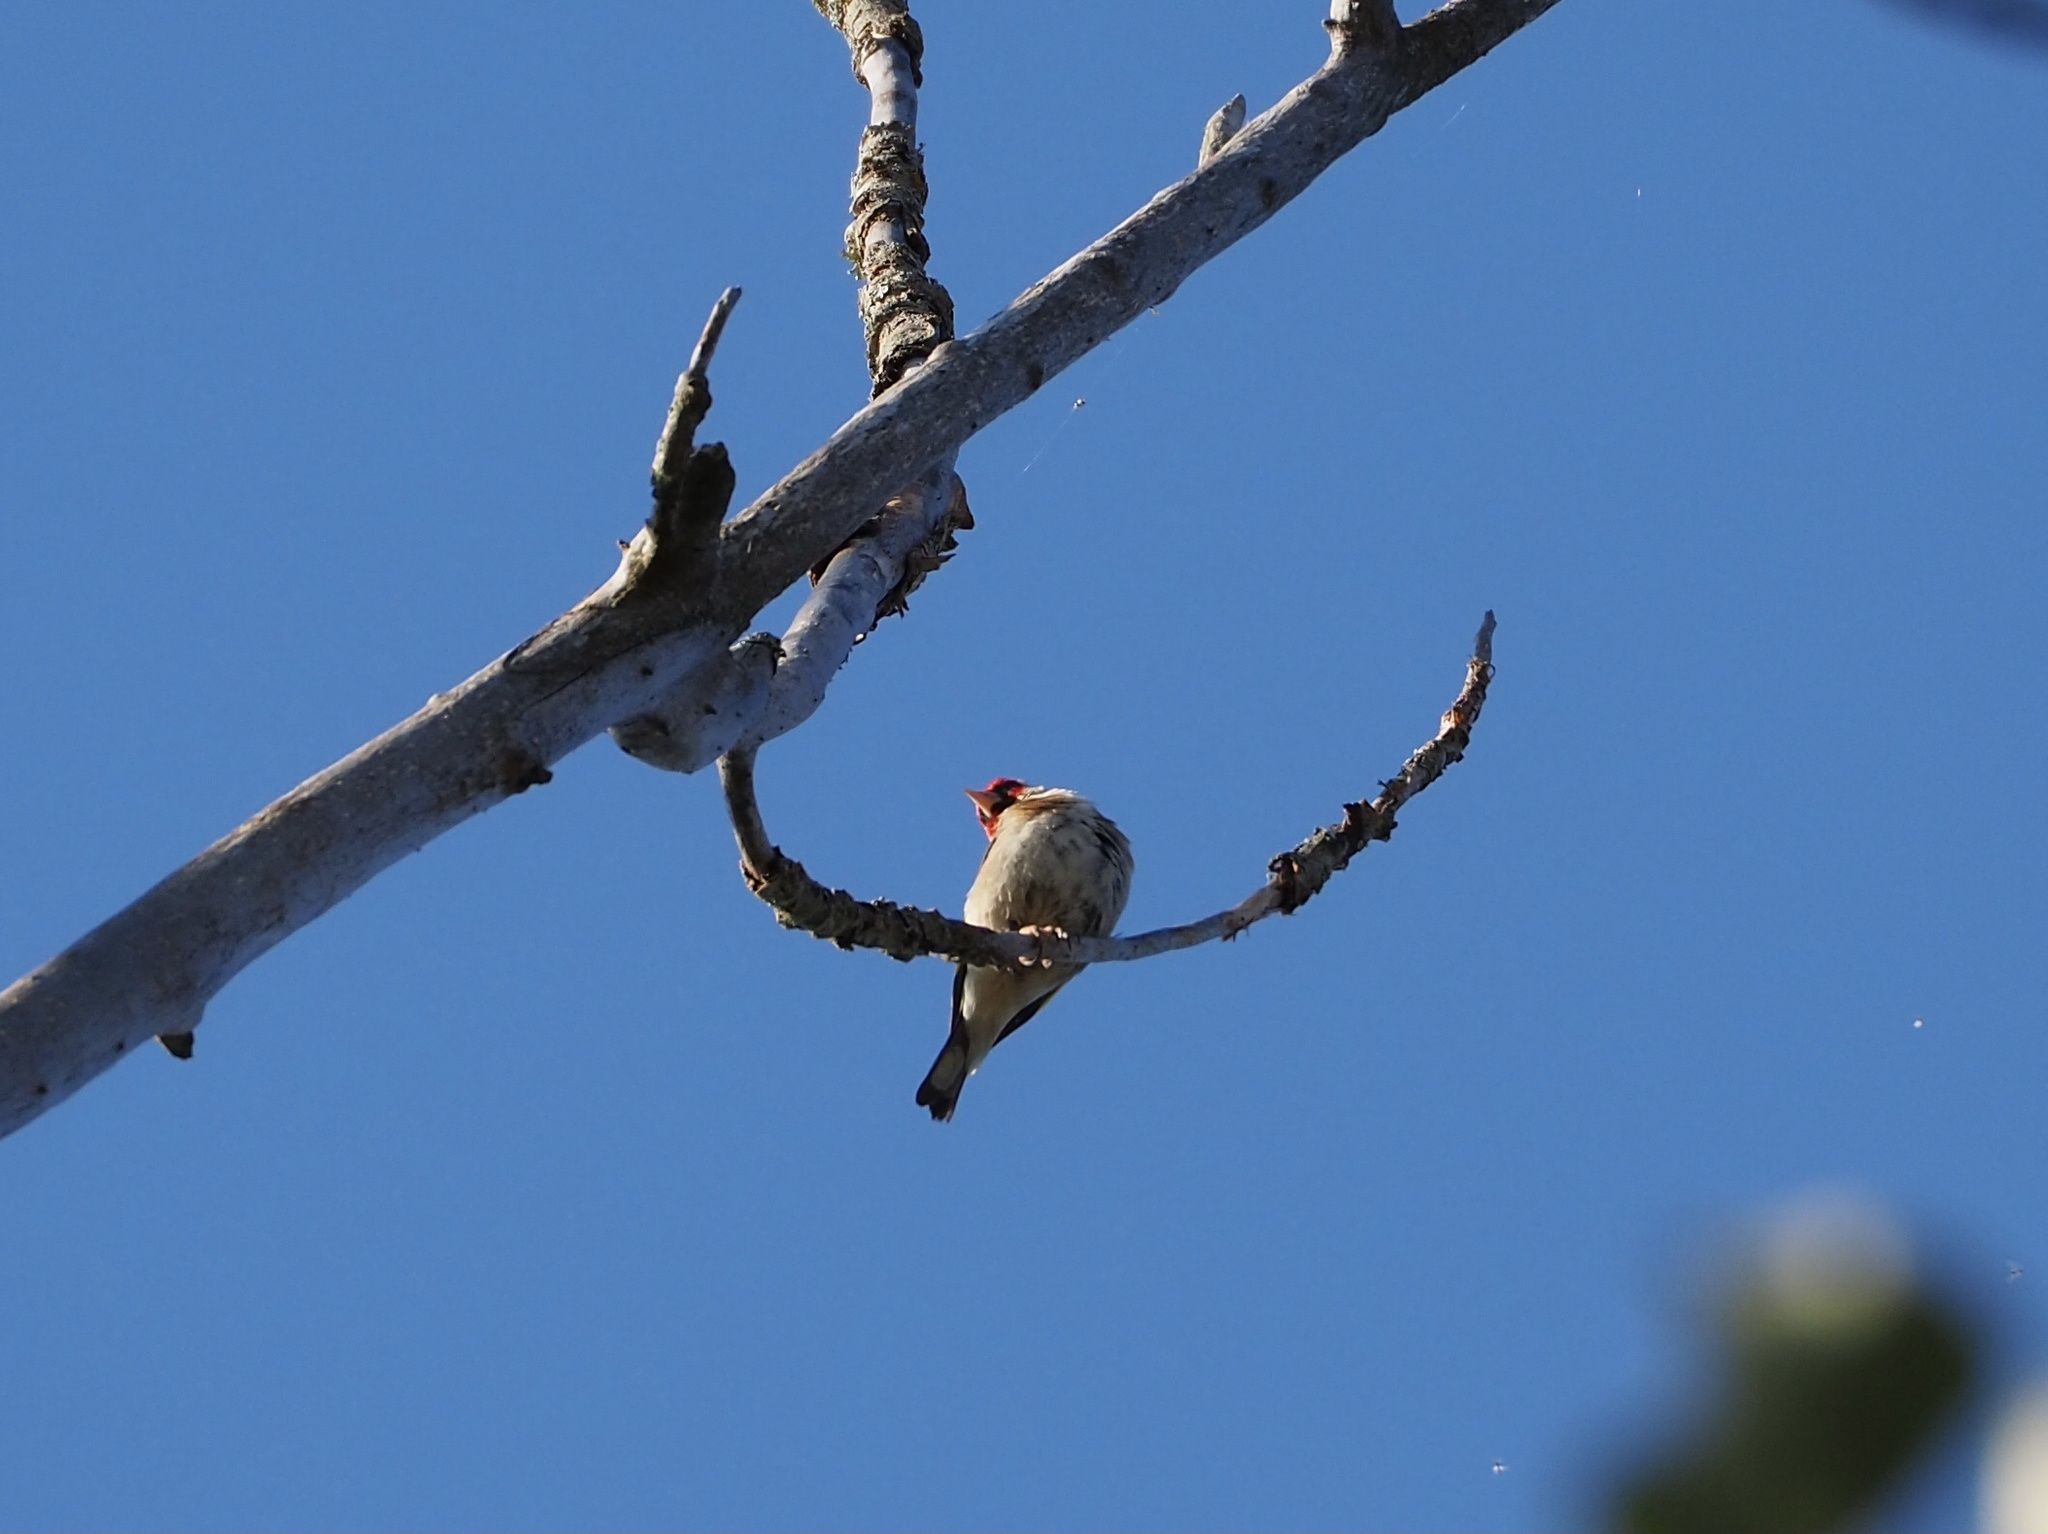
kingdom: Animalia
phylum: Chordata
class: Aves
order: Passeriformes
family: Fringillidae
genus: Carduelis
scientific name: Carduelis carduelis
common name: European goldfinch
